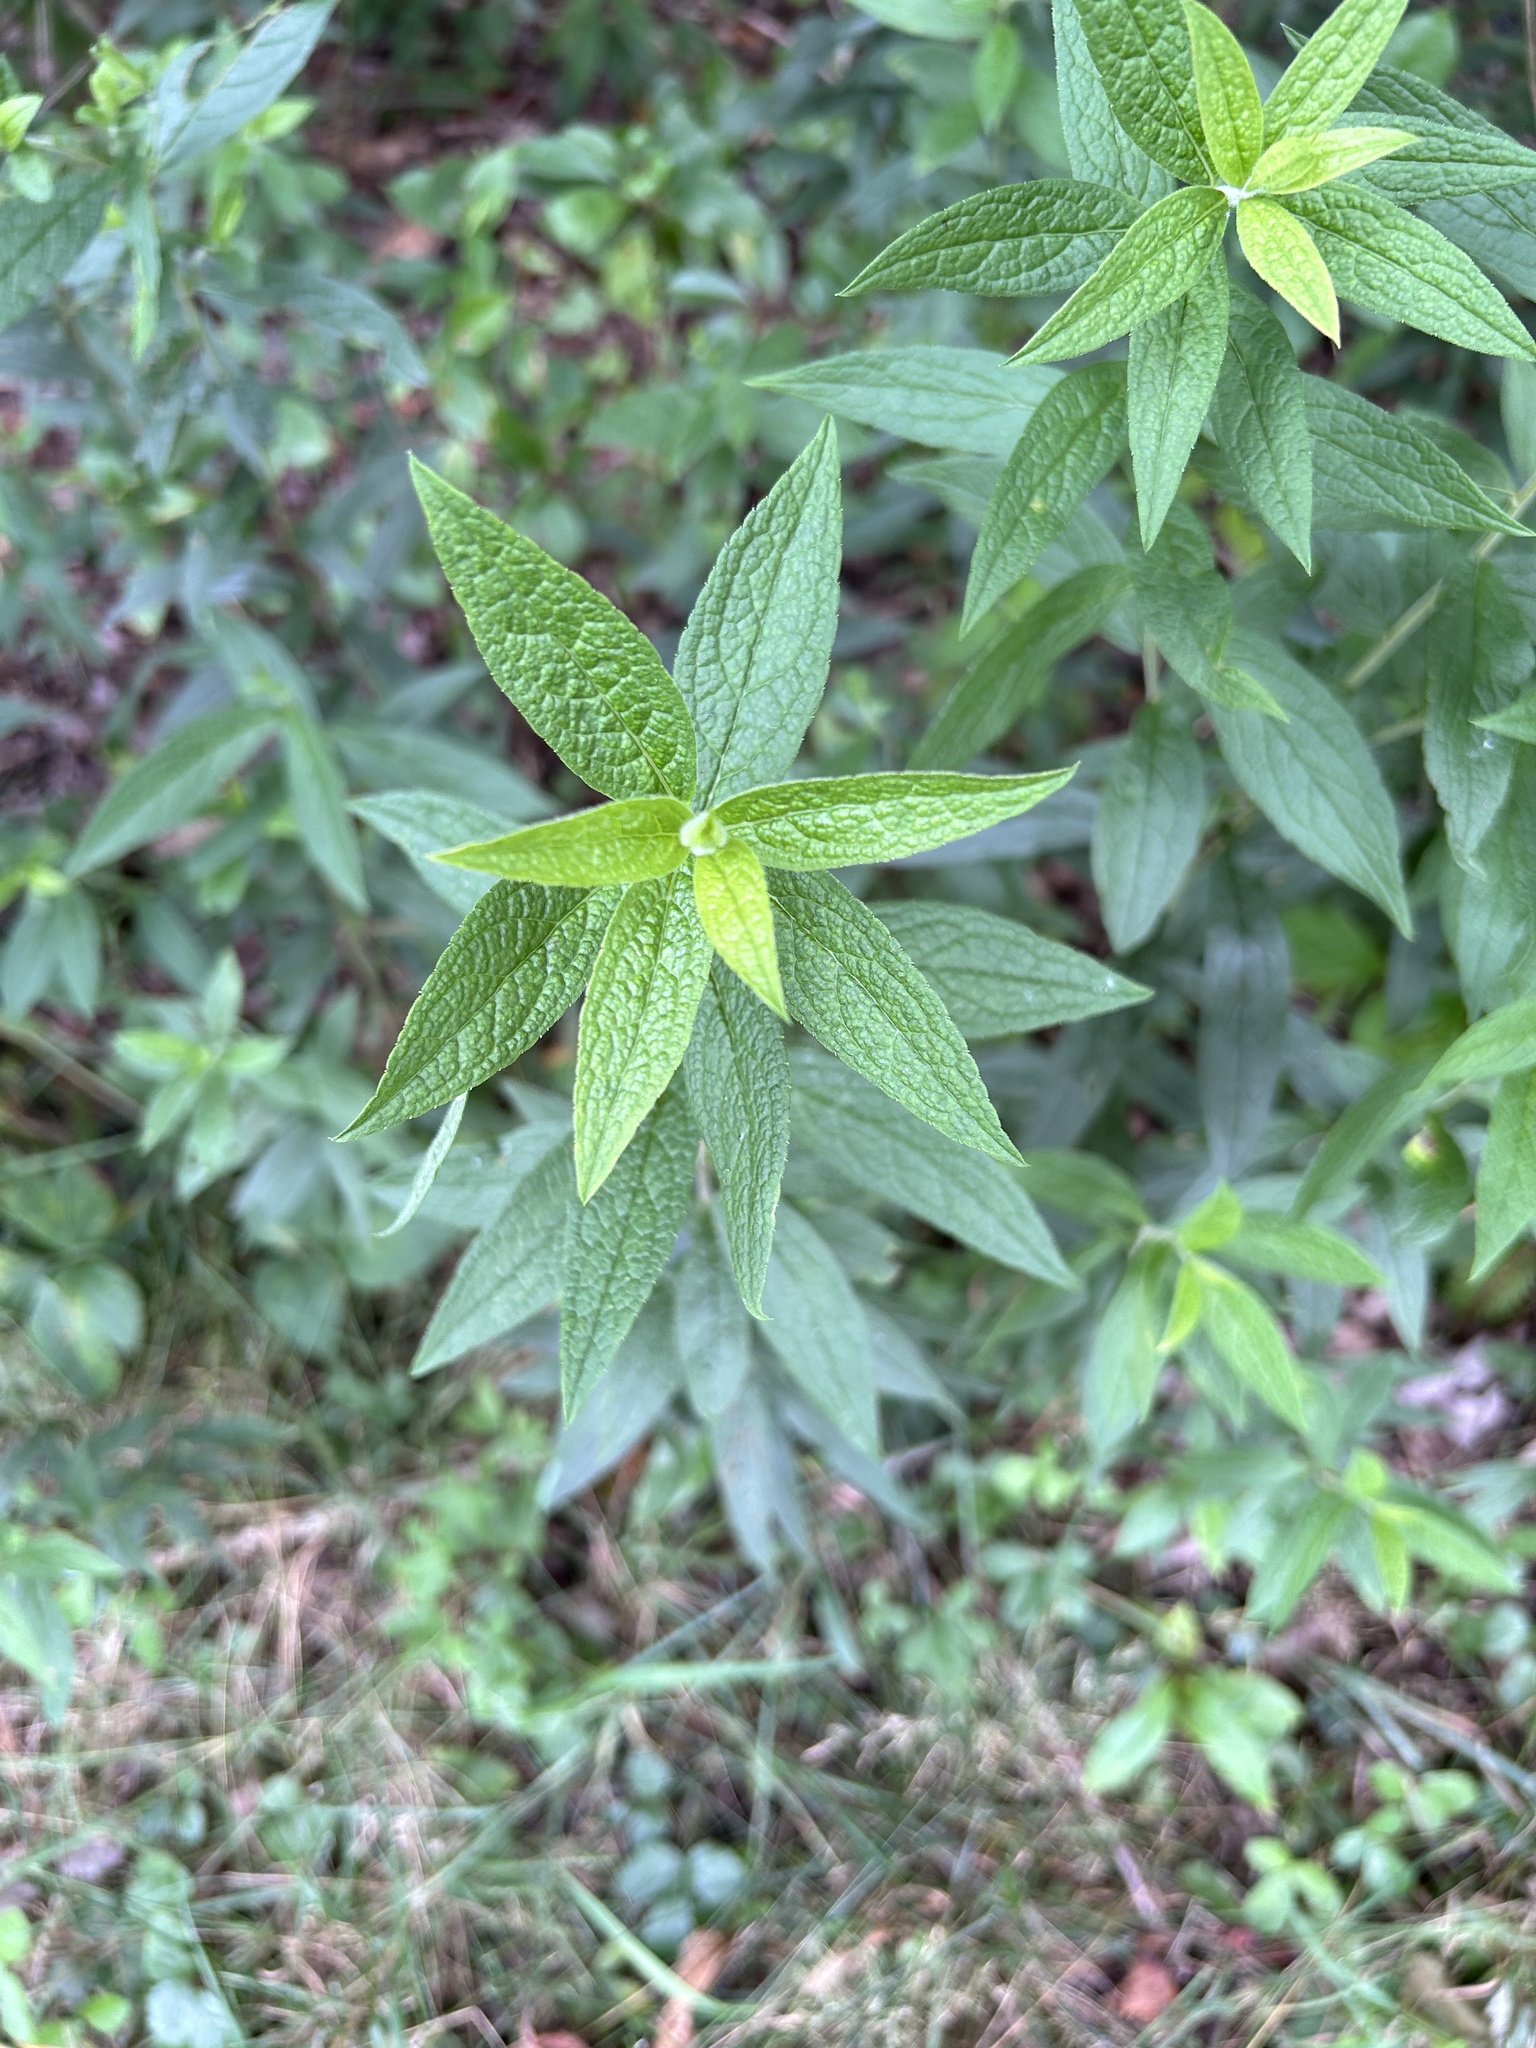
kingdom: Plantae
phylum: Tracheophyta
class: Magnoliopsida
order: Asterales
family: Asteraceae
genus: Solidago
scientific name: Solidago rugosa
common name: Rough-stemmed goldenrod
